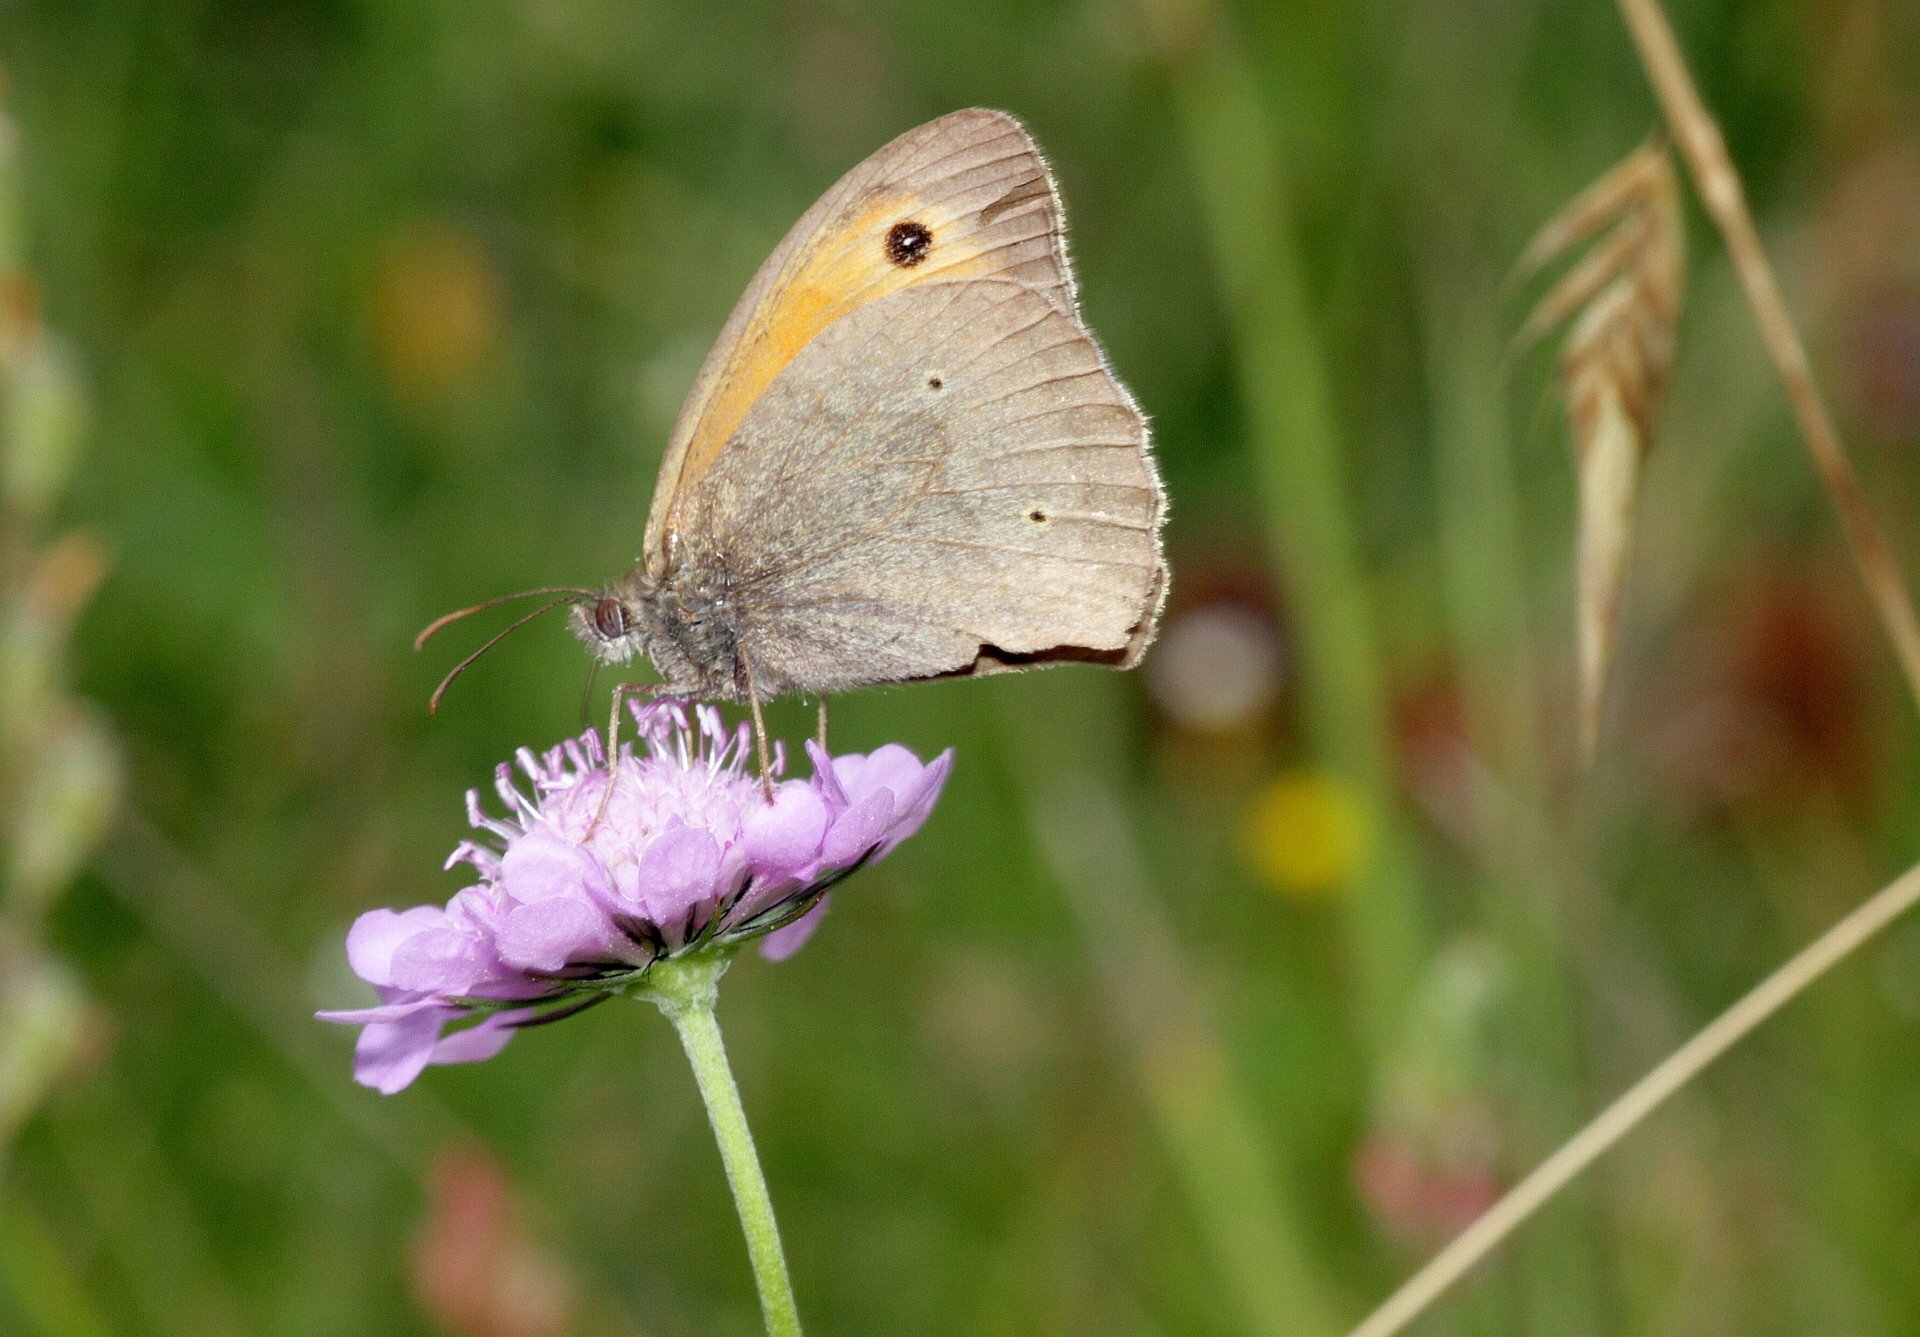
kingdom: Animalia
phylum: Arthropoda
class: Insecta
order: Lepidoptera
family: Nymphalidae
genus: Maniola
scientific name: Maniola jurtina
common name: Meadow brown
